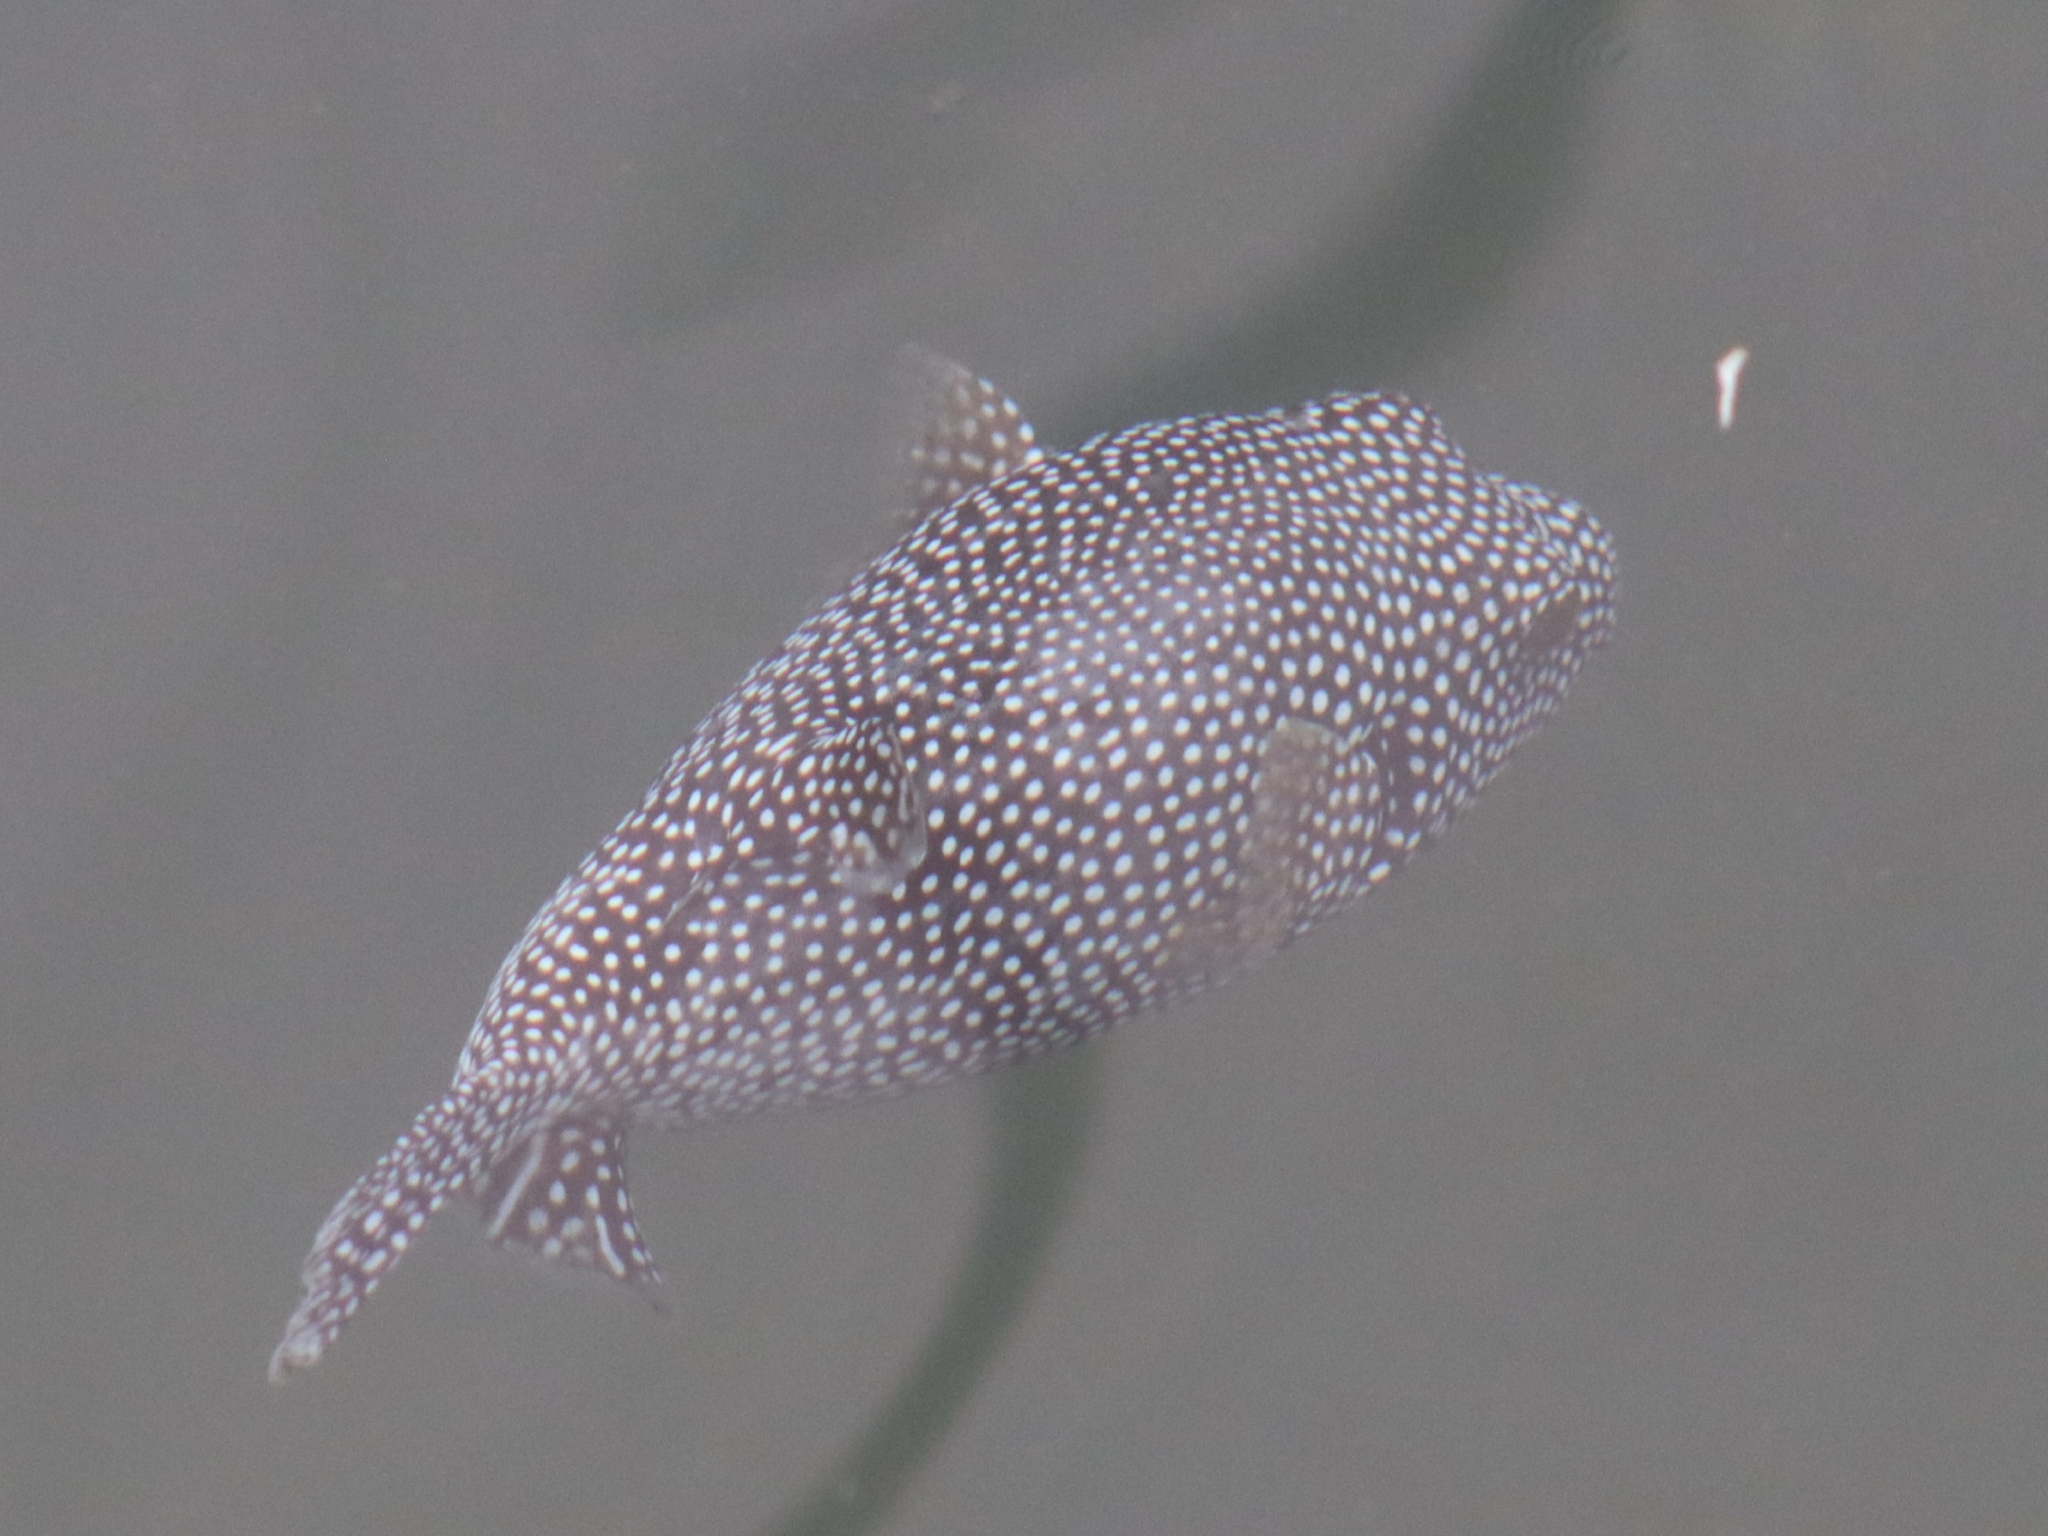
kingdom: Animalia
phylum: Chordata
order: Tetraodontiformes
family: Tetraodontidae
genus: Arothron
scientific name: Arothron meleagris
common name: Guinea-fowl pufferfish
